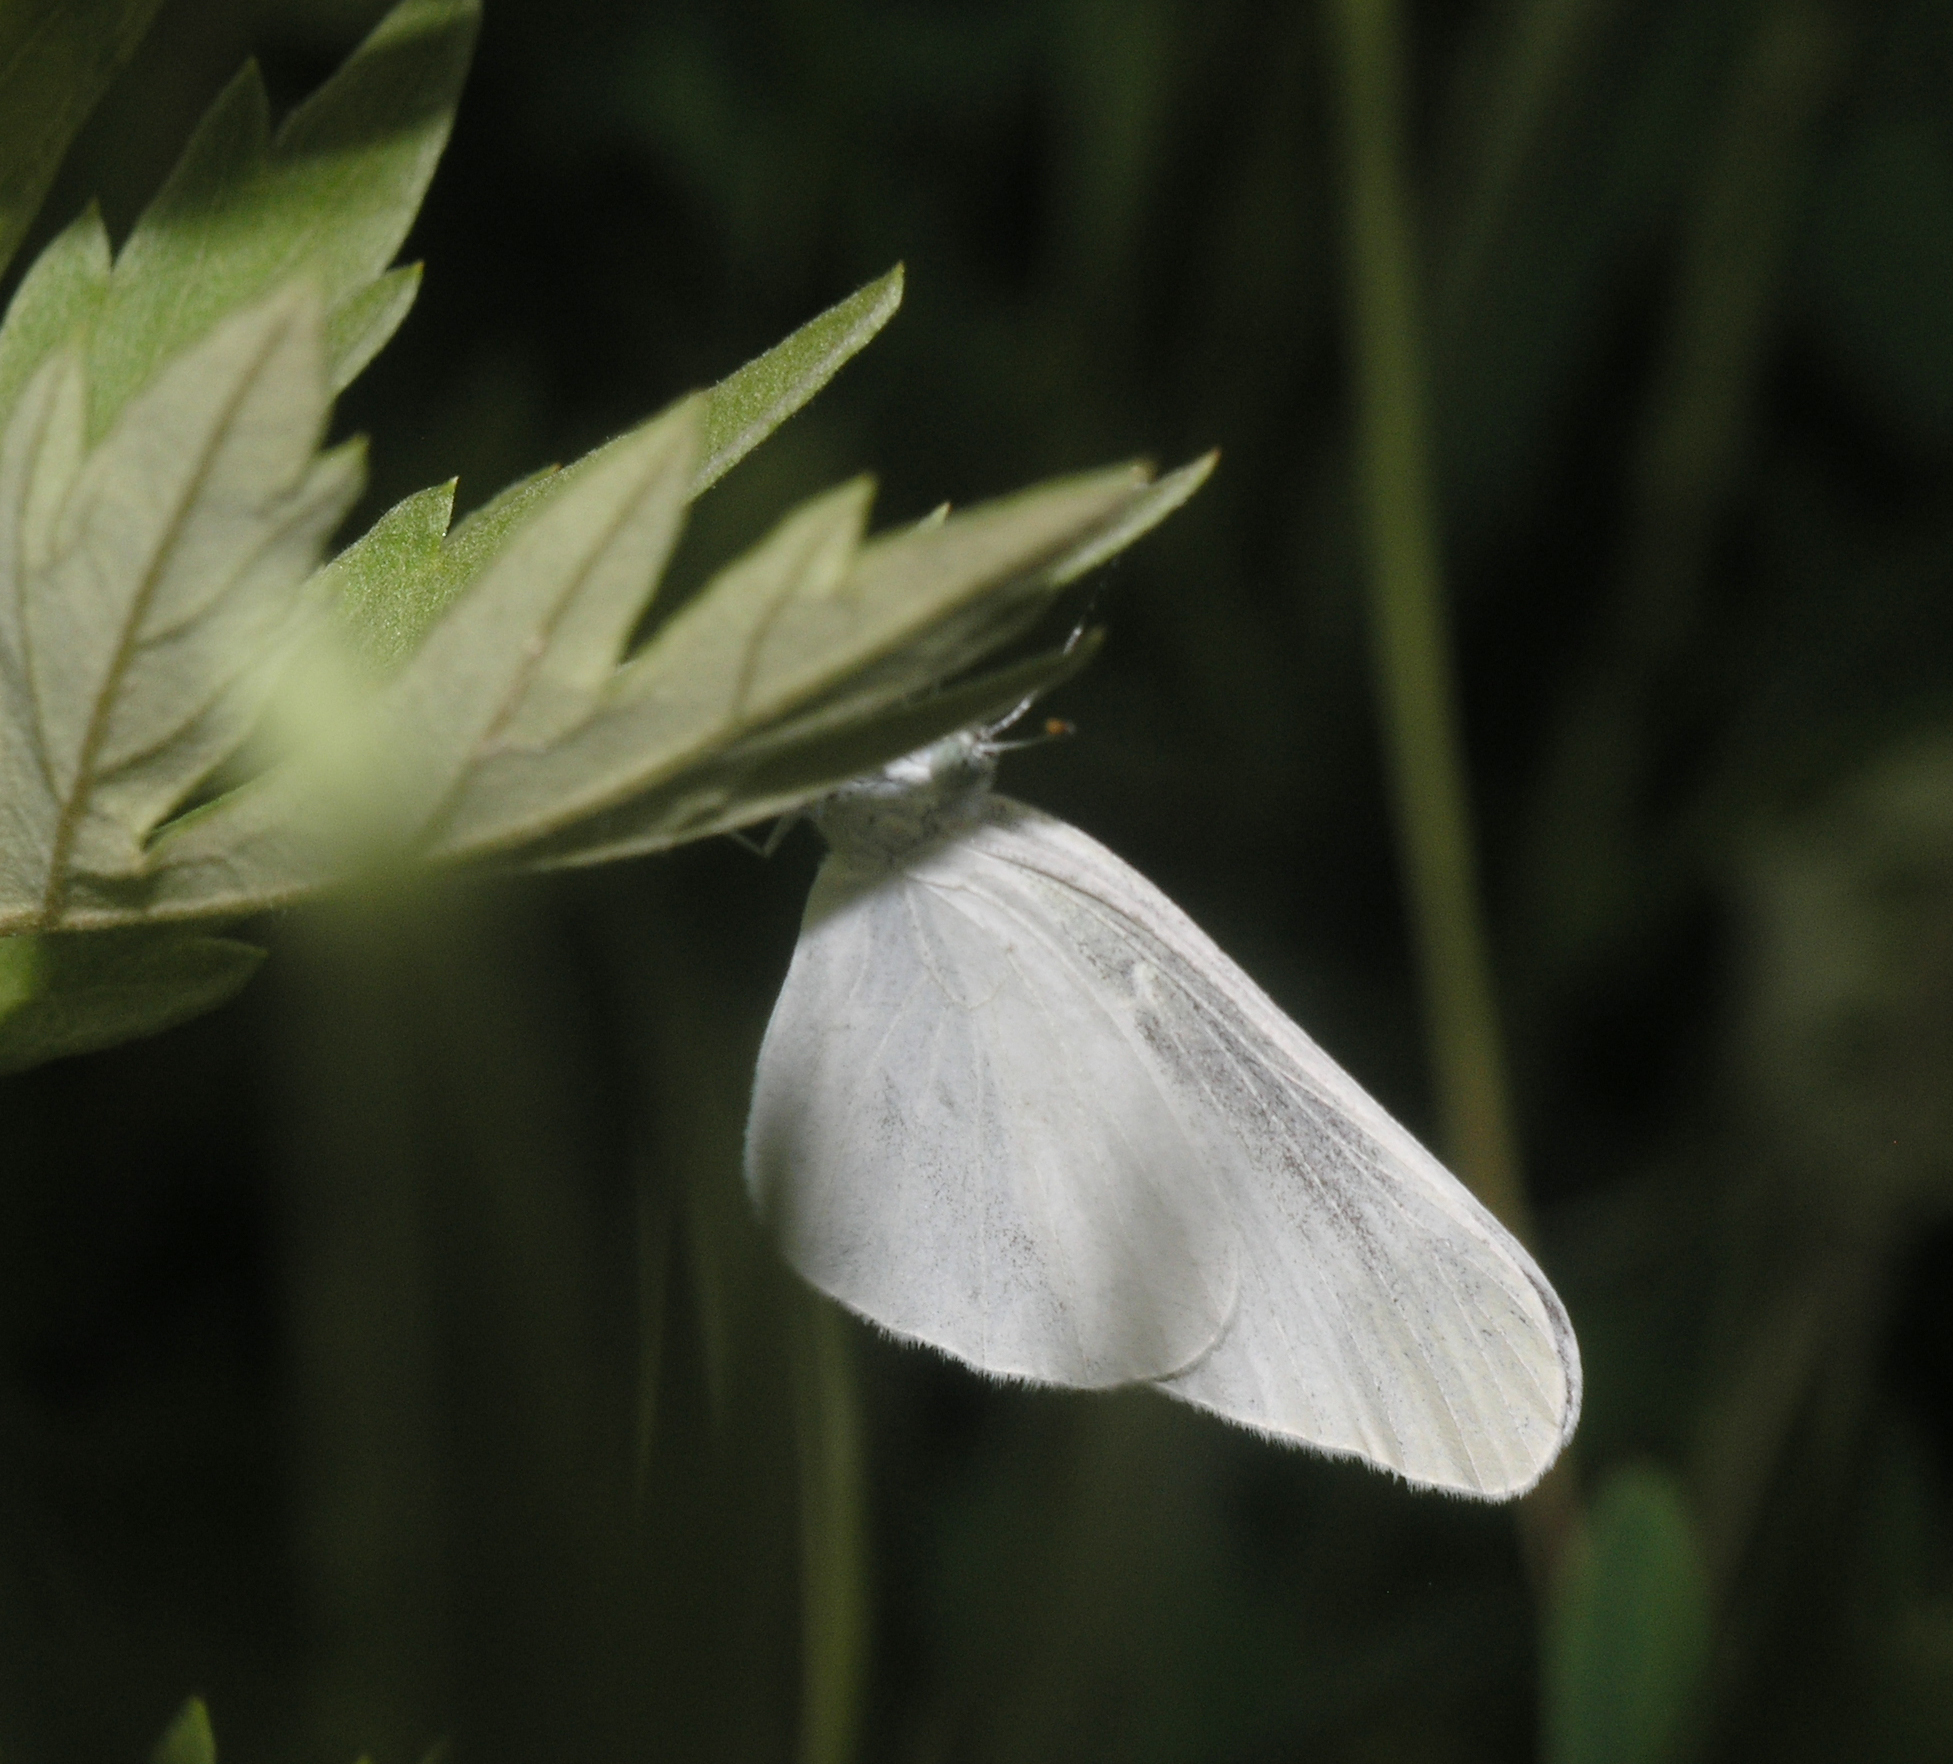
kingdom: Animalia
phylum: Arthropoda
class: Insecta
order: Lepidoptera
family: Pieridae
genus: Leptidea
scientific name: Leptidea amurensis
